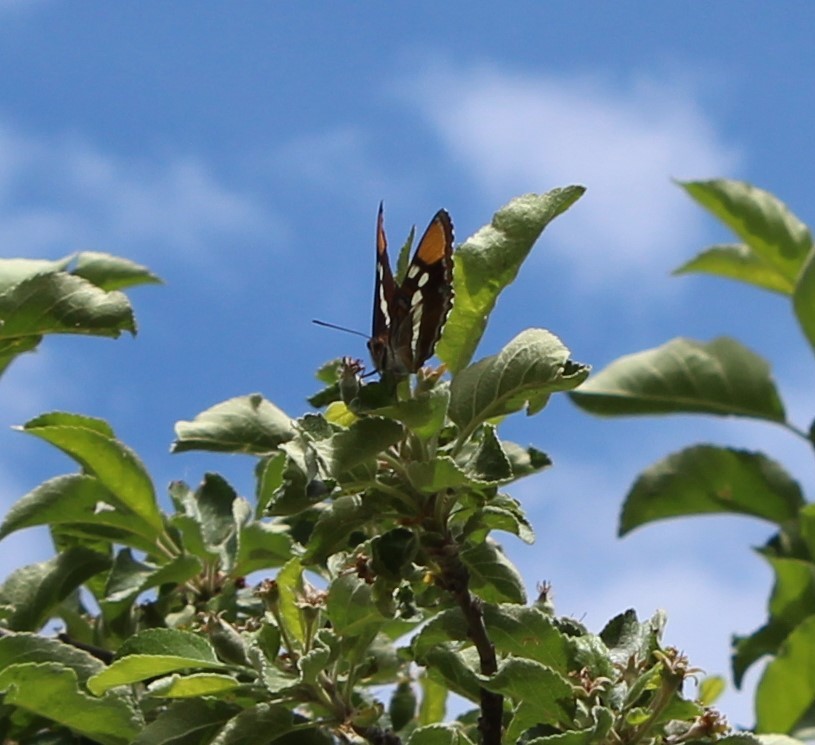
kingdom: Animalia
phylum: Arthropoda
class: Insecta
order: Lepidoptera
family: Nymphalidae
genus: Limenitis
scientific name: Limenitis bredowii
